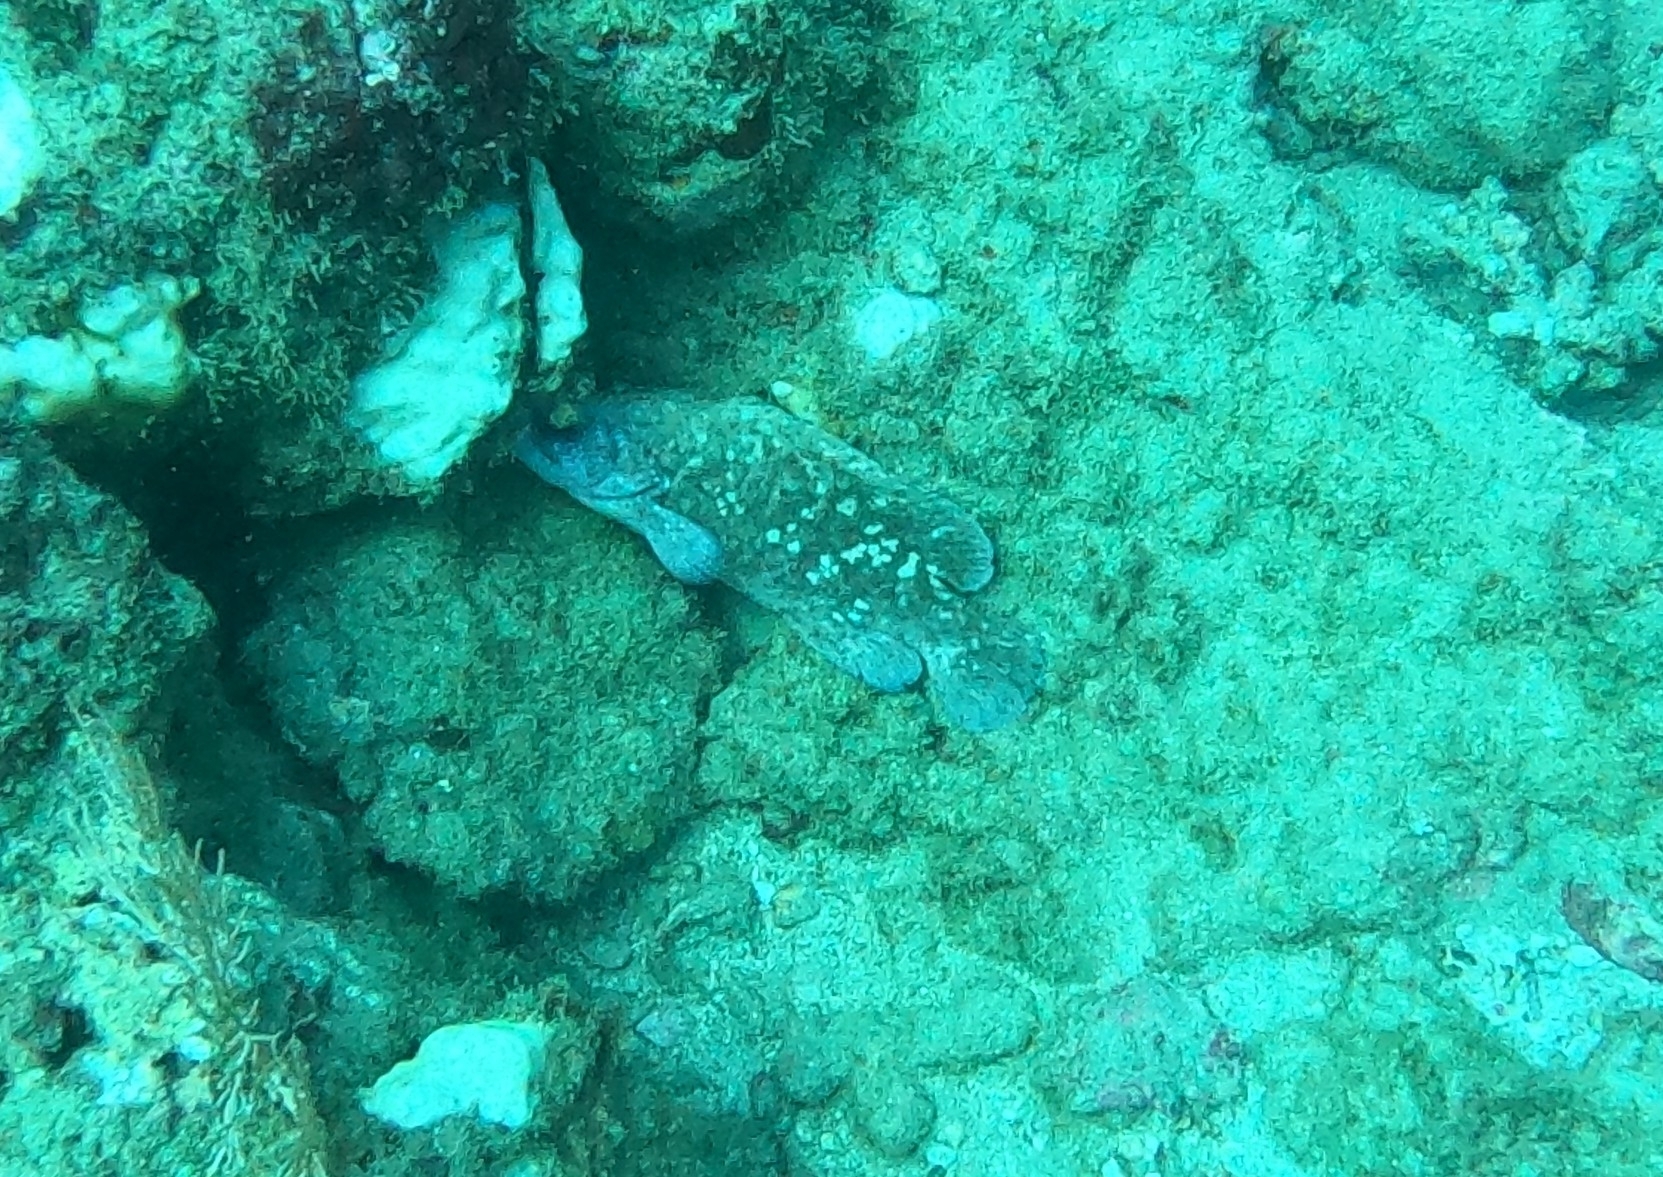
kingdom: Animalia
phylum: Chordata
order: Perciformes
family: Serranidae
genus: Rypticus
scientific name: Rypticus bicolor
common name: Mottled soapfish
